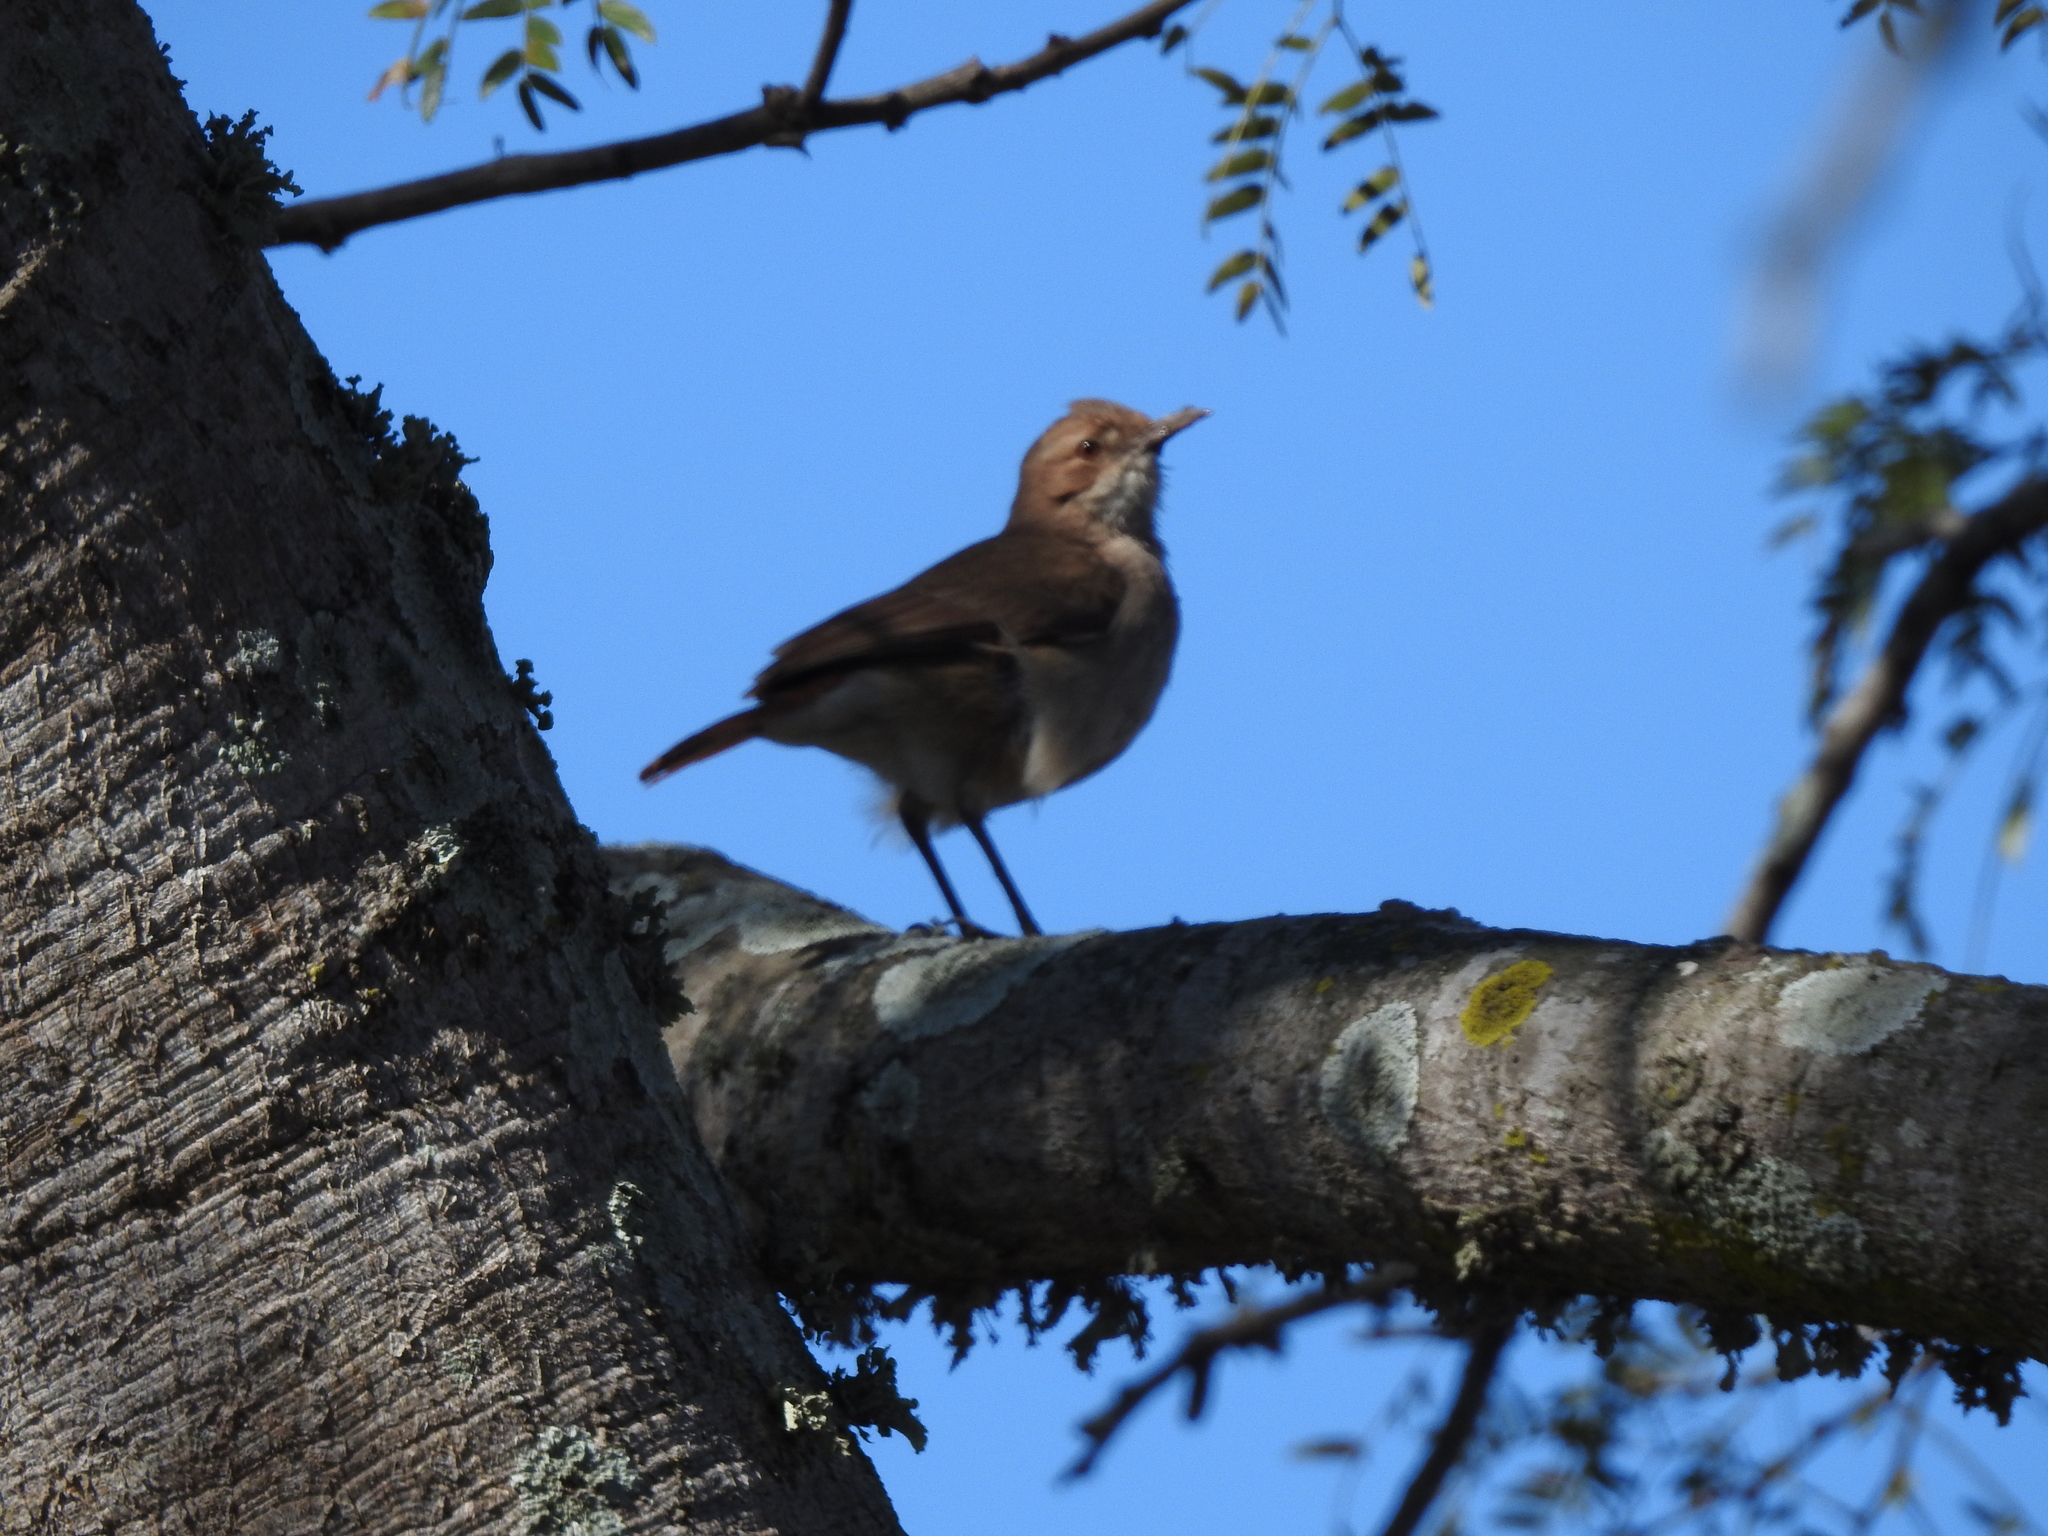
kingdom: Animalia
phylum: Chordata
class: Aves
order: Passeriformes
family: Furnariidae
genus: Furnarius
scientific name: Furnarius rufus
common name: Rufous hornero
